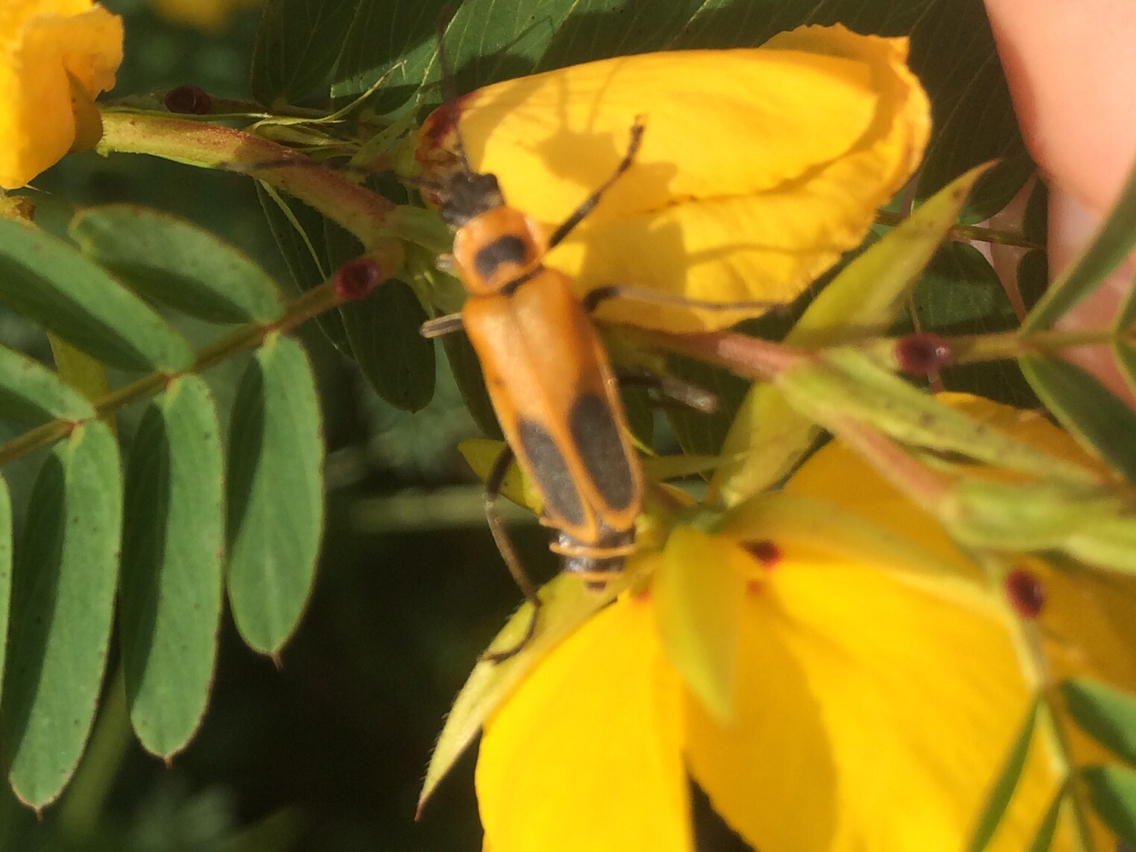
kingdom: Animalia
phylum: Arthropoda
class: Insecta
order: Coleoptera
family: Cantharidae
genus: Chauliognathus
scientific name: Chauliognathus pensylvanicus
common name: Goldenrod soldier beetle
